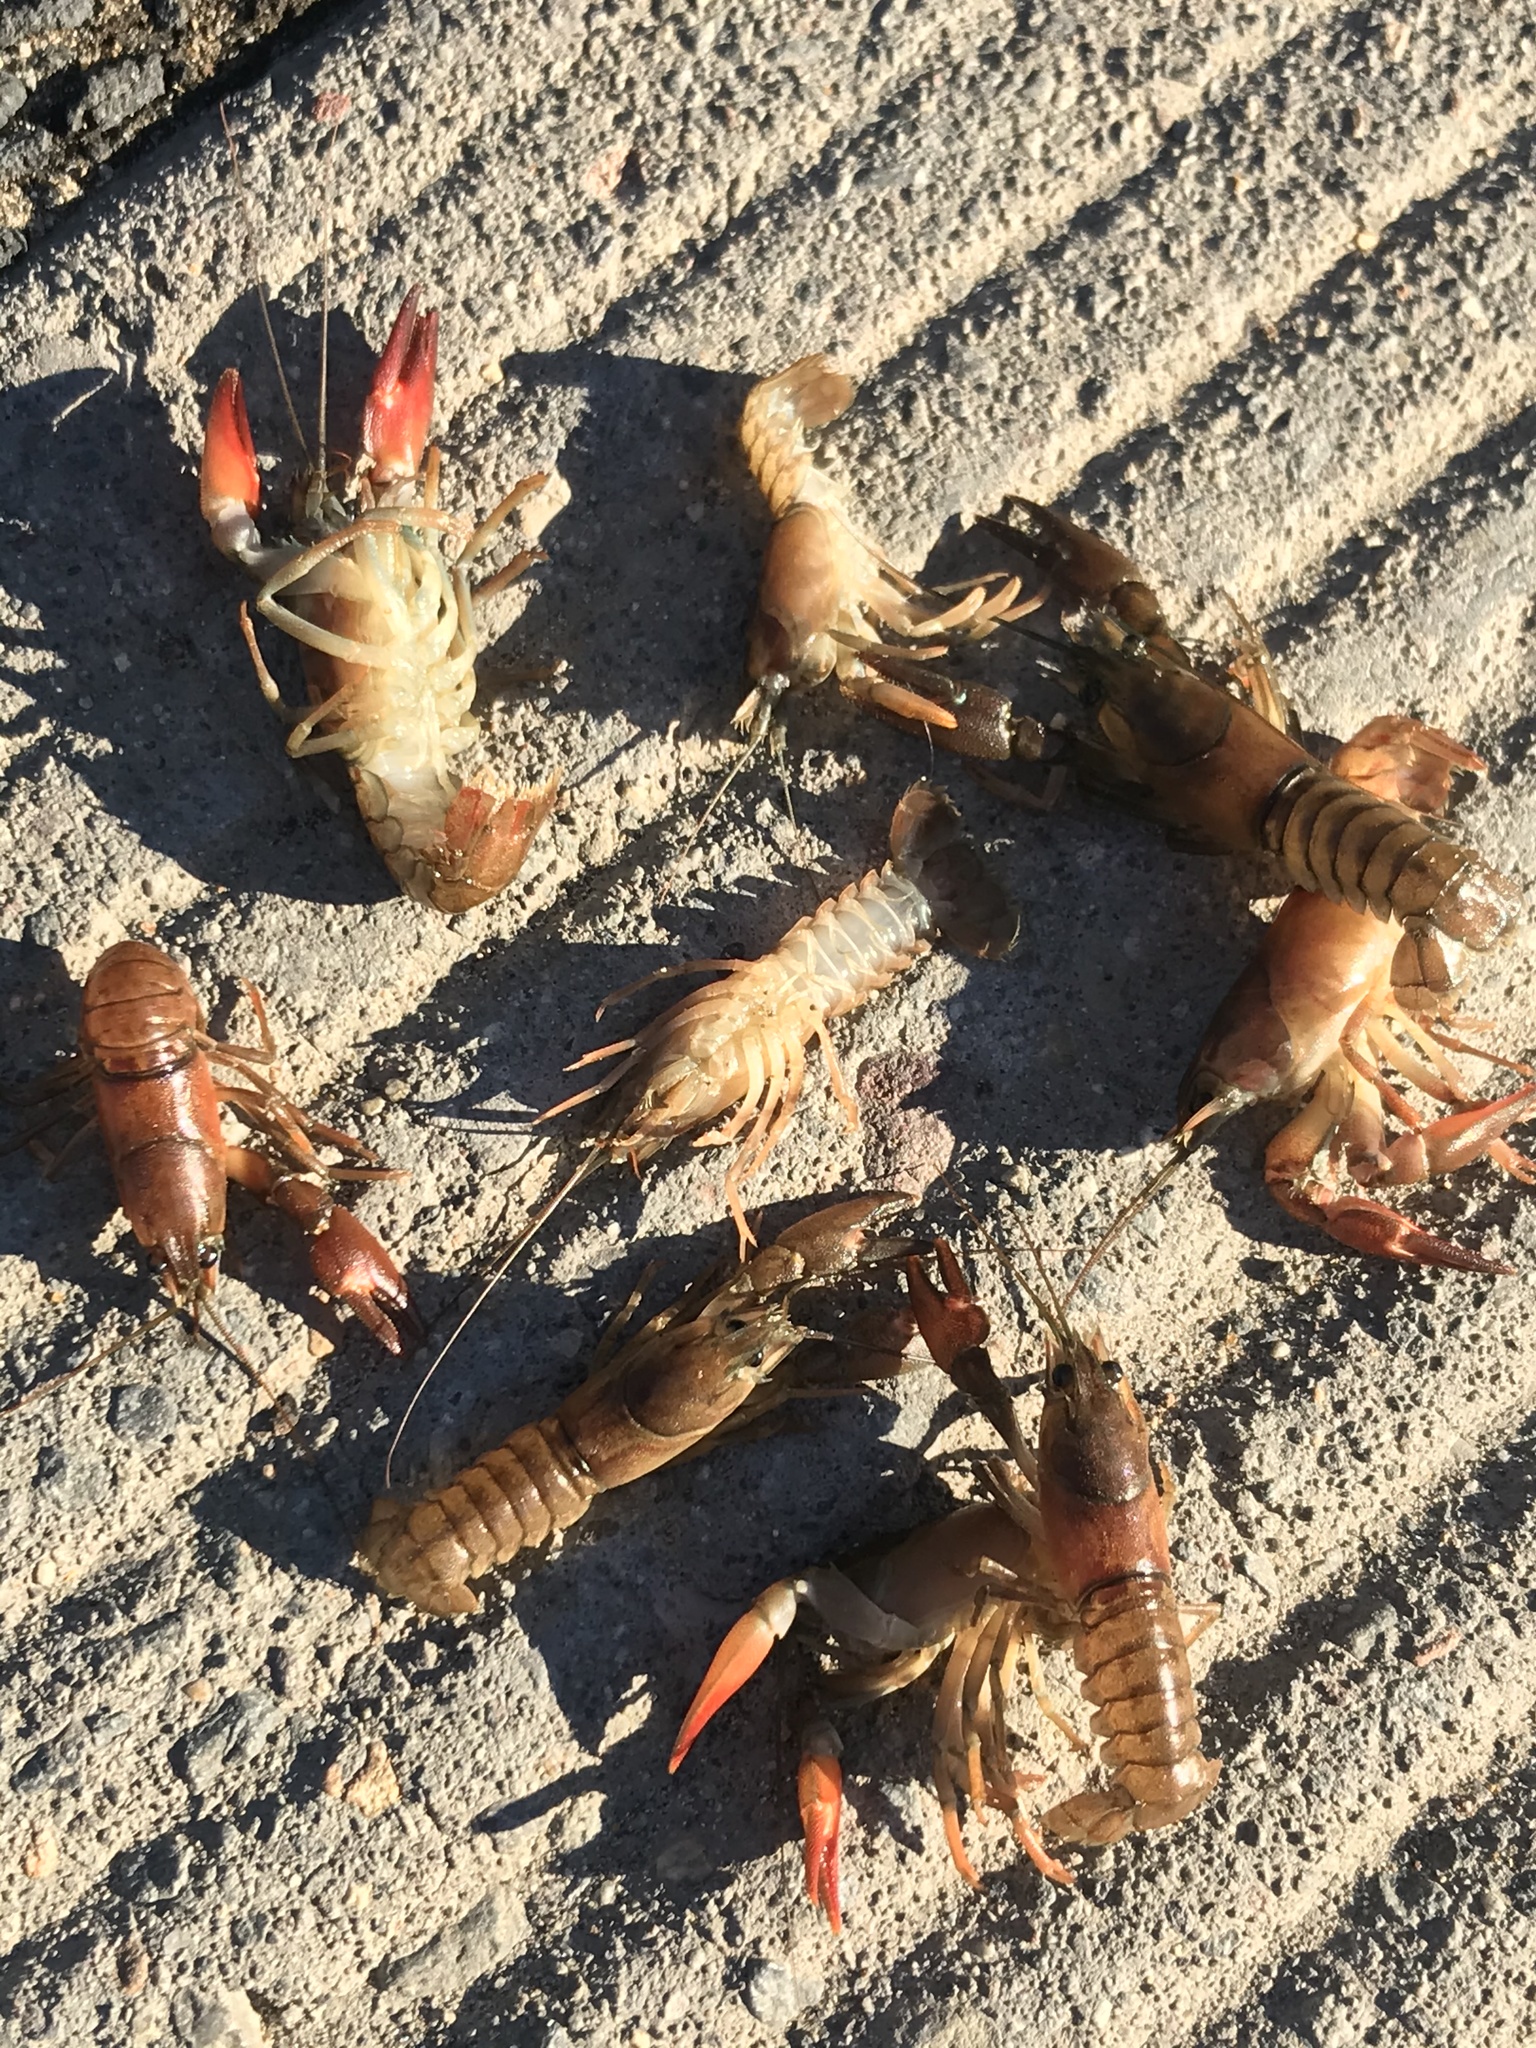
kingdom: Animalia
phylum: Arthropoda
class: Malacostraca
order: Decapoda
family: Astacidae
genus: Pacifastacus
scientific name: Pacifastacus leniusculus
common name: Signal crayfish
